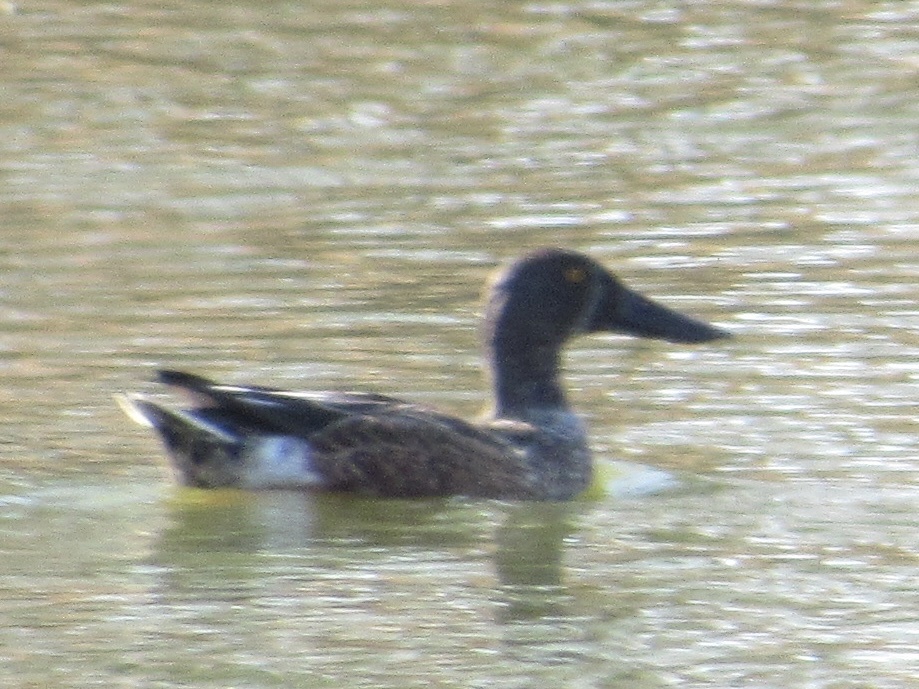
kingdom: Animalia
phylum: Chordata
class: Aves
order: Anseriformes
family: Anatidae
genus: Spatula
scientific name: Spatula clypeata
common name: Northern shoveler
